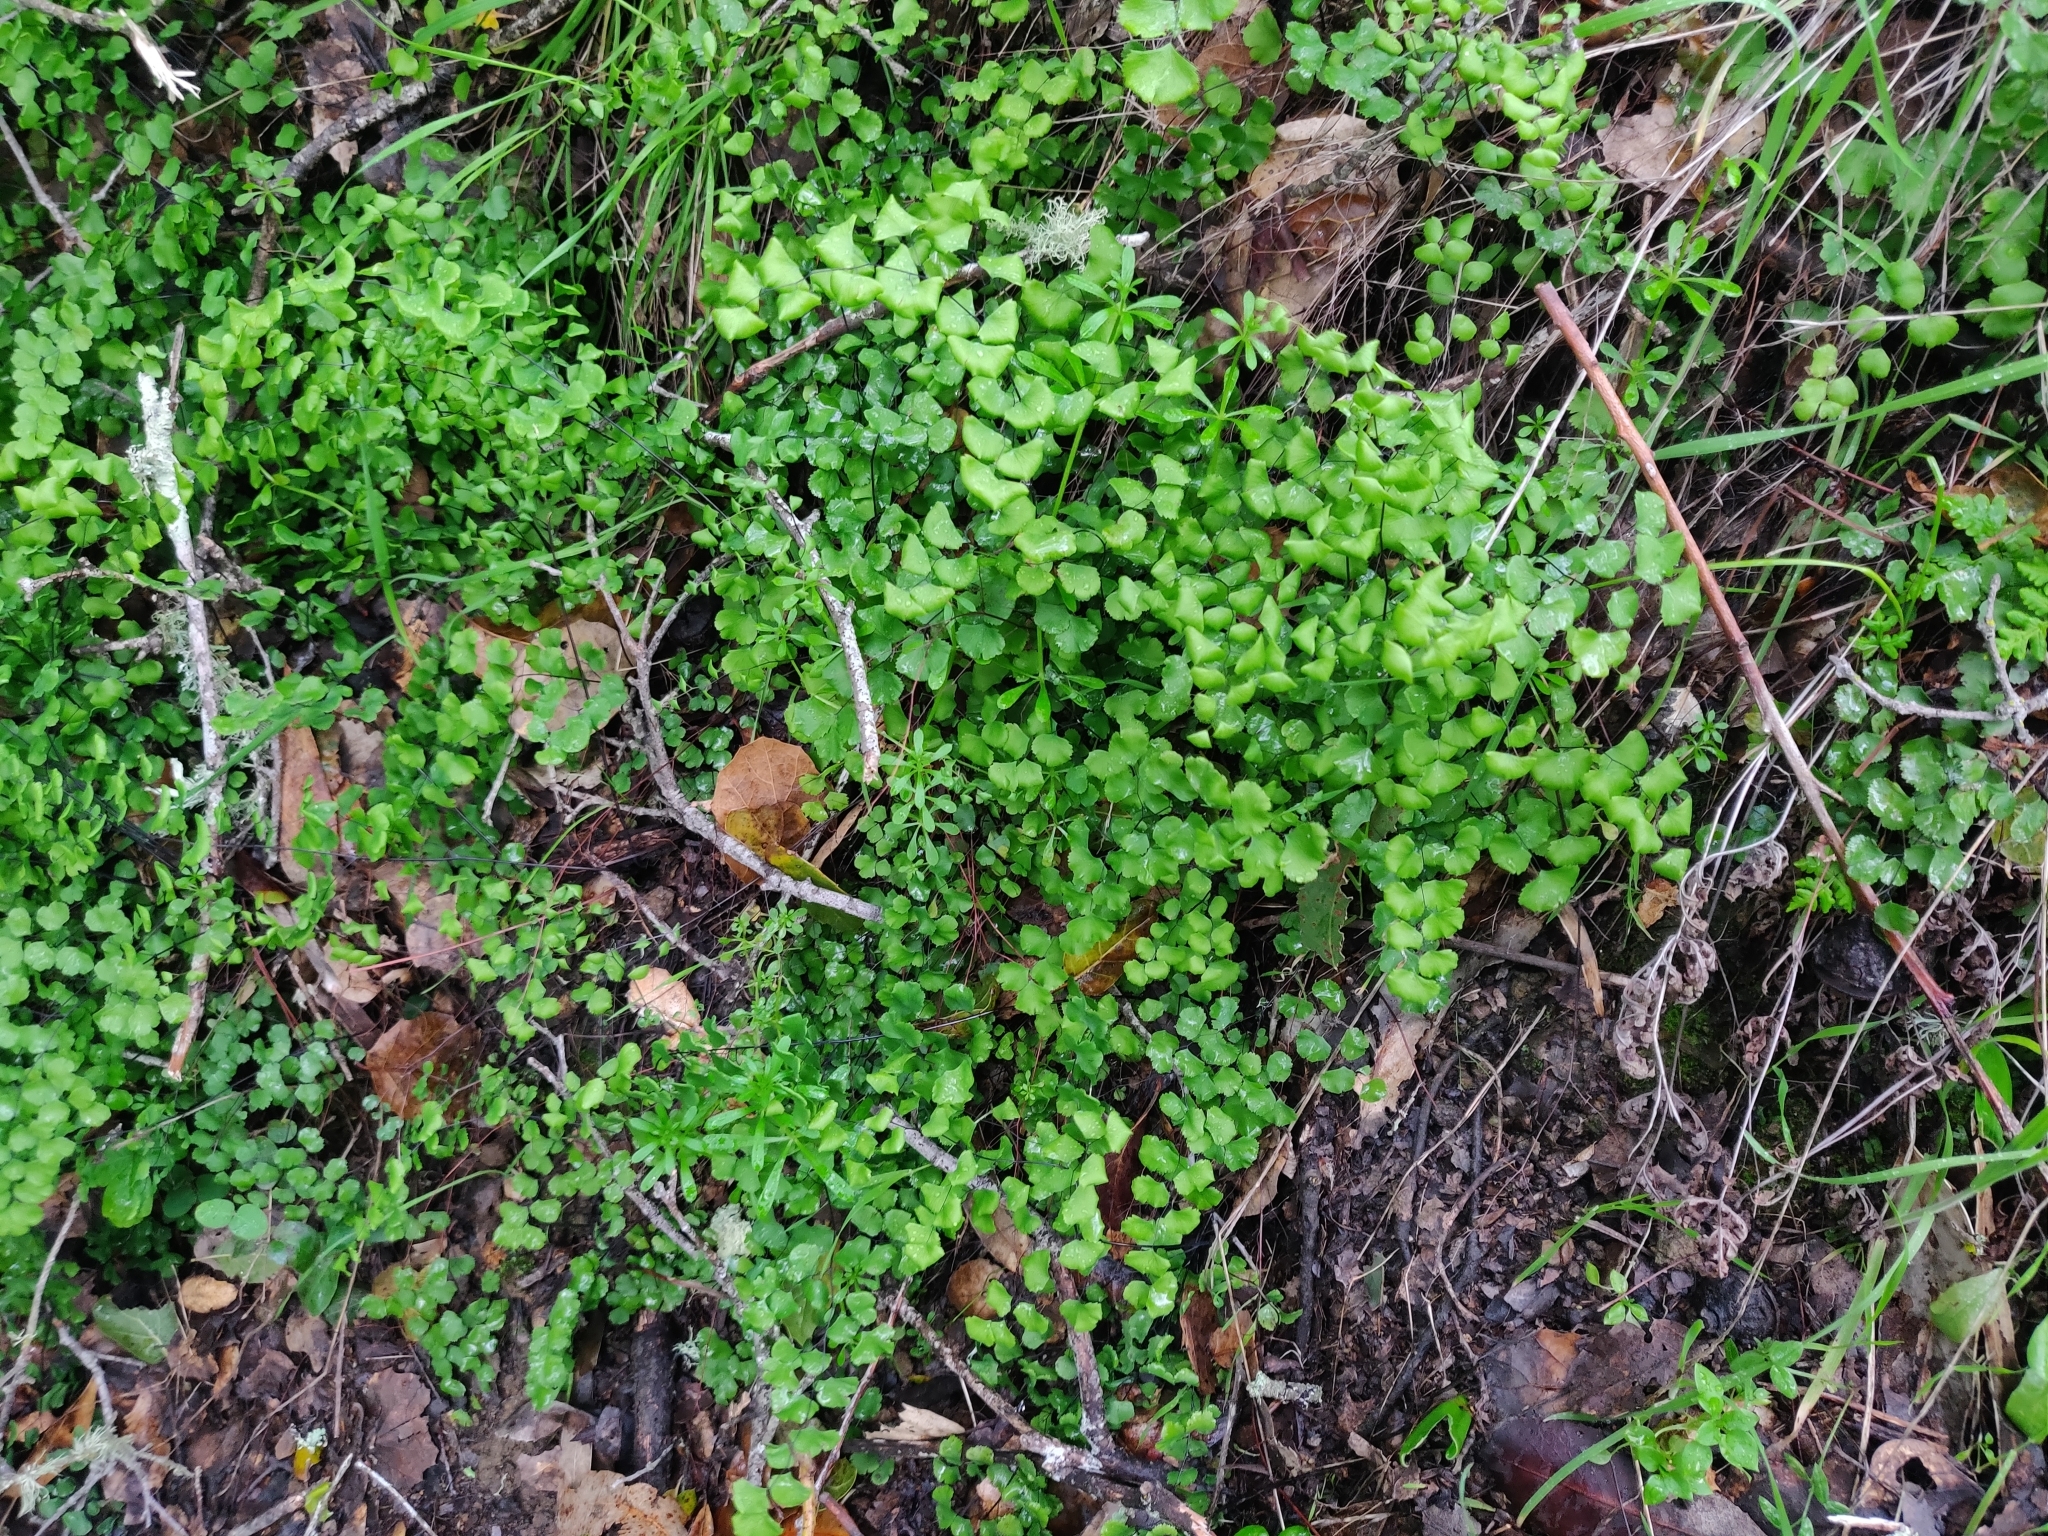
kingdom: Plantae
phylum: Tracheophyta
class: Polypodiopsida
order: Polypodiales
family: Pteridaceae
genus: Adiantum
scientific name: Adiantum jordanii
